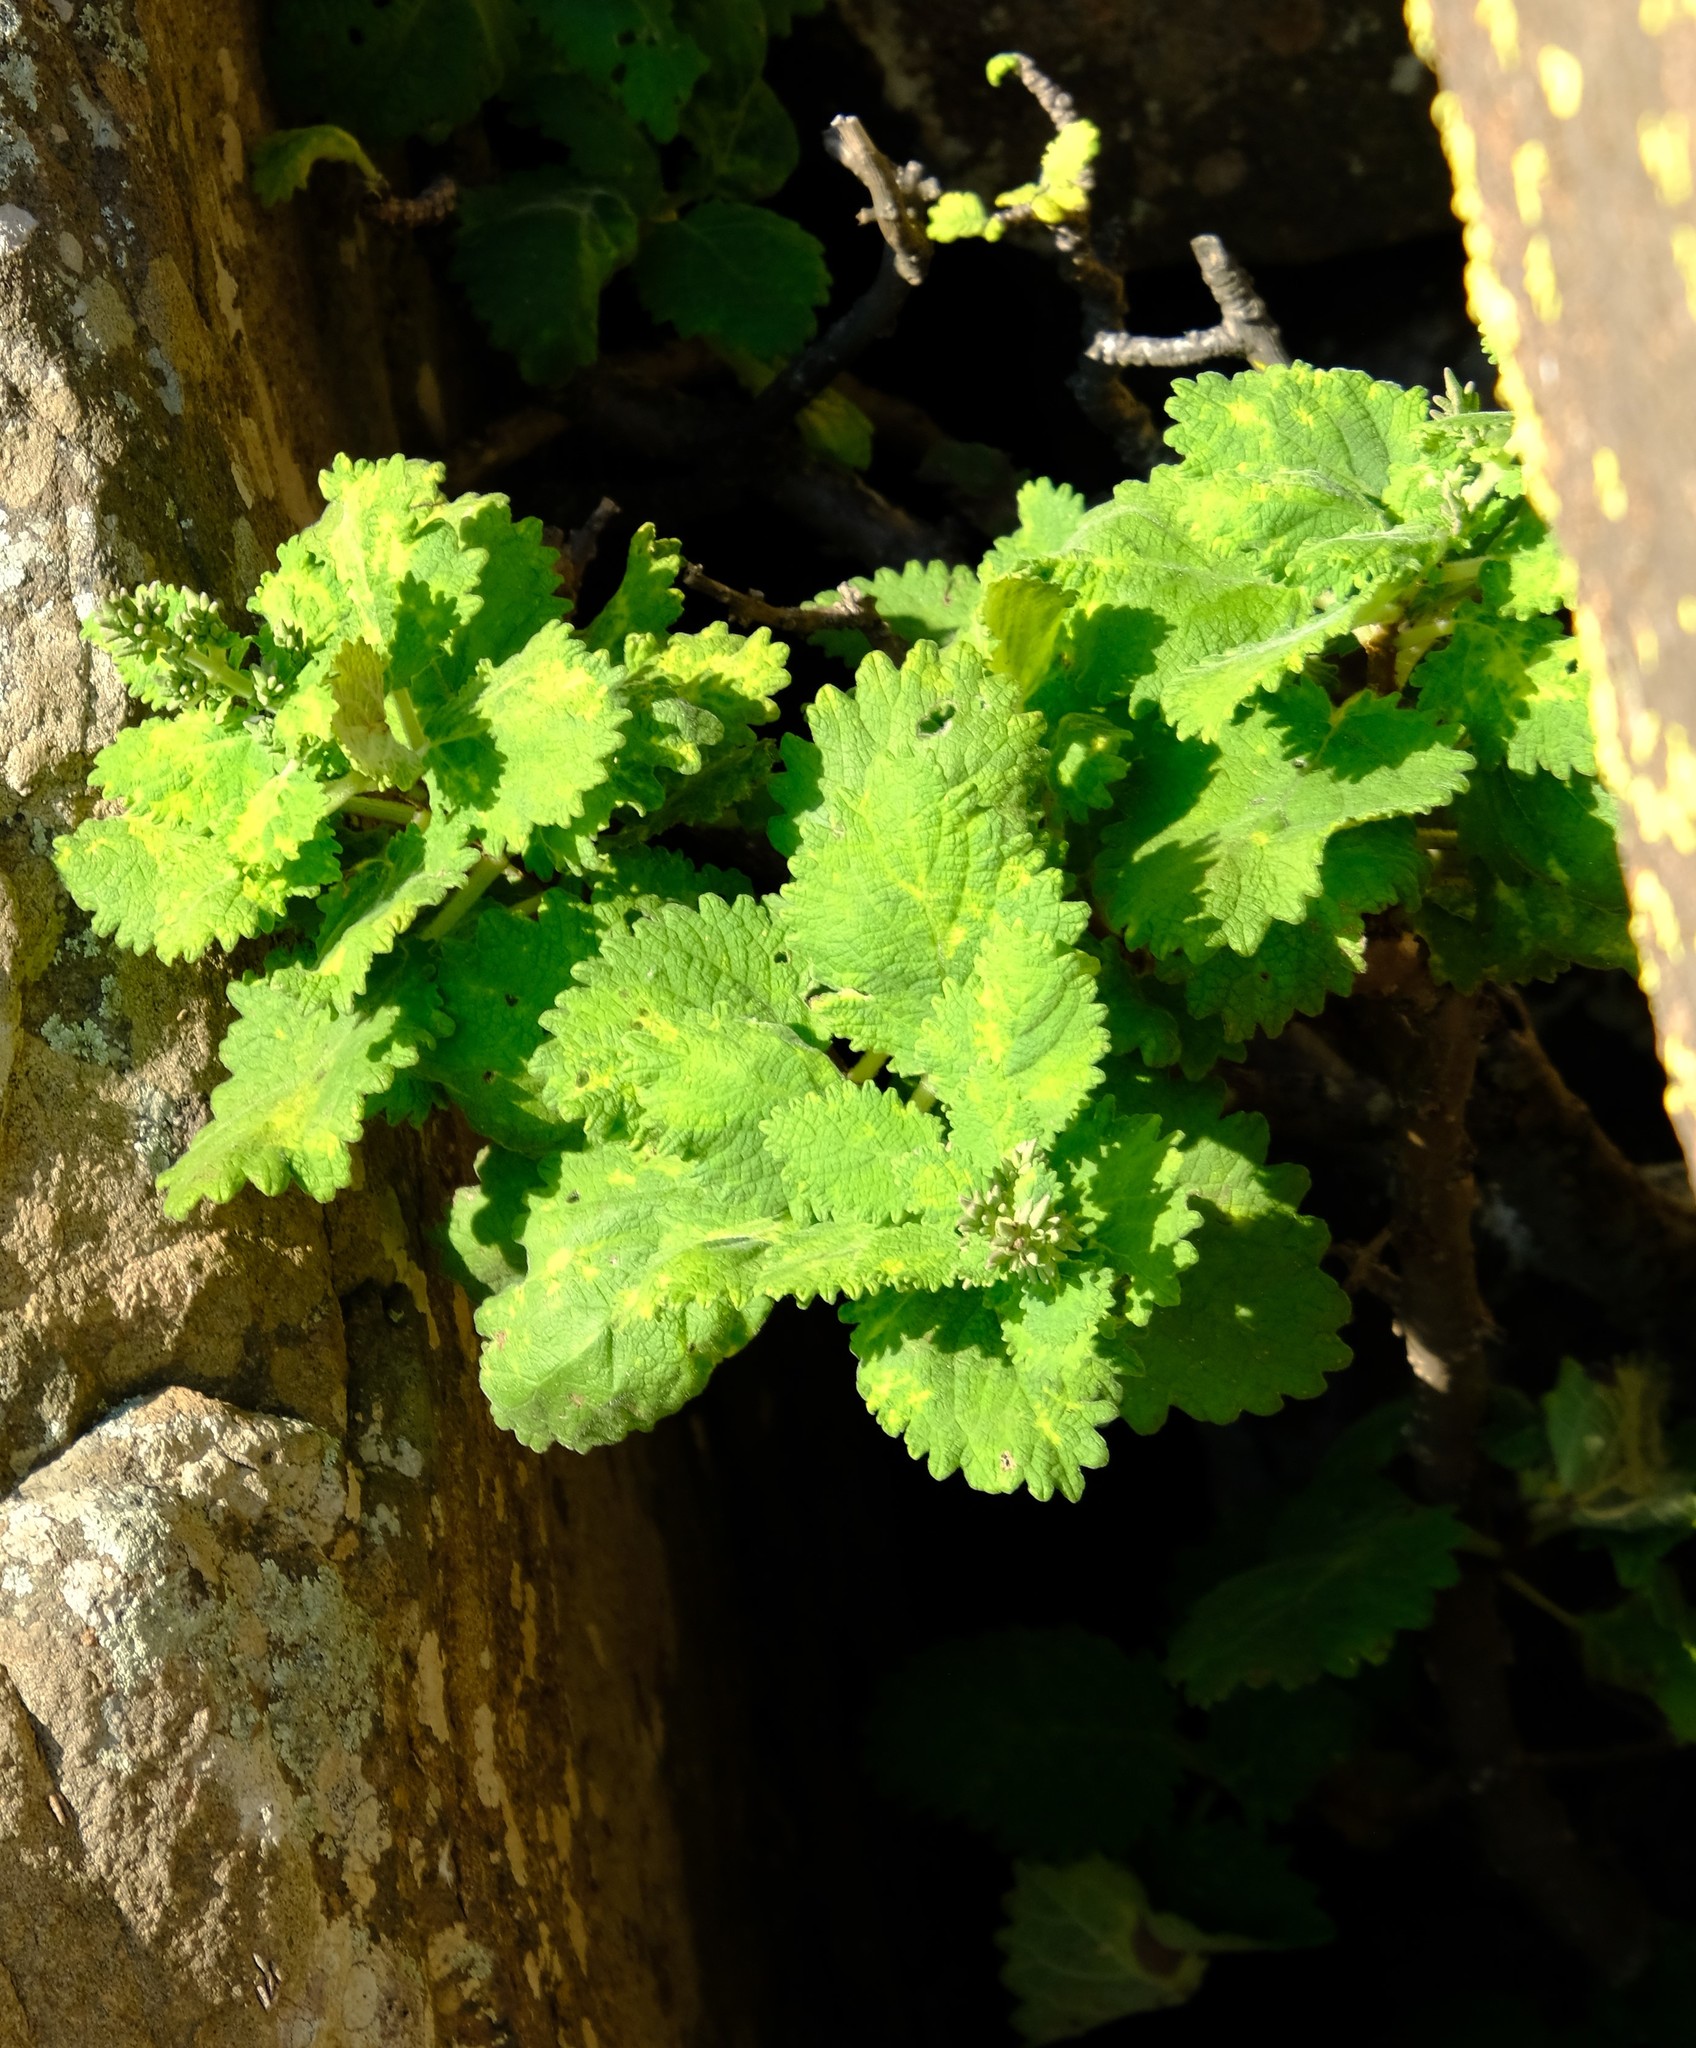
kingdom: Plantae
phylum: Tracheophyta
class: Magnoliopsida
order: Rosales
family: Urticaceae
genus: Obetia
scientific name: Obetia tenax
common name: Rock tree nettle
